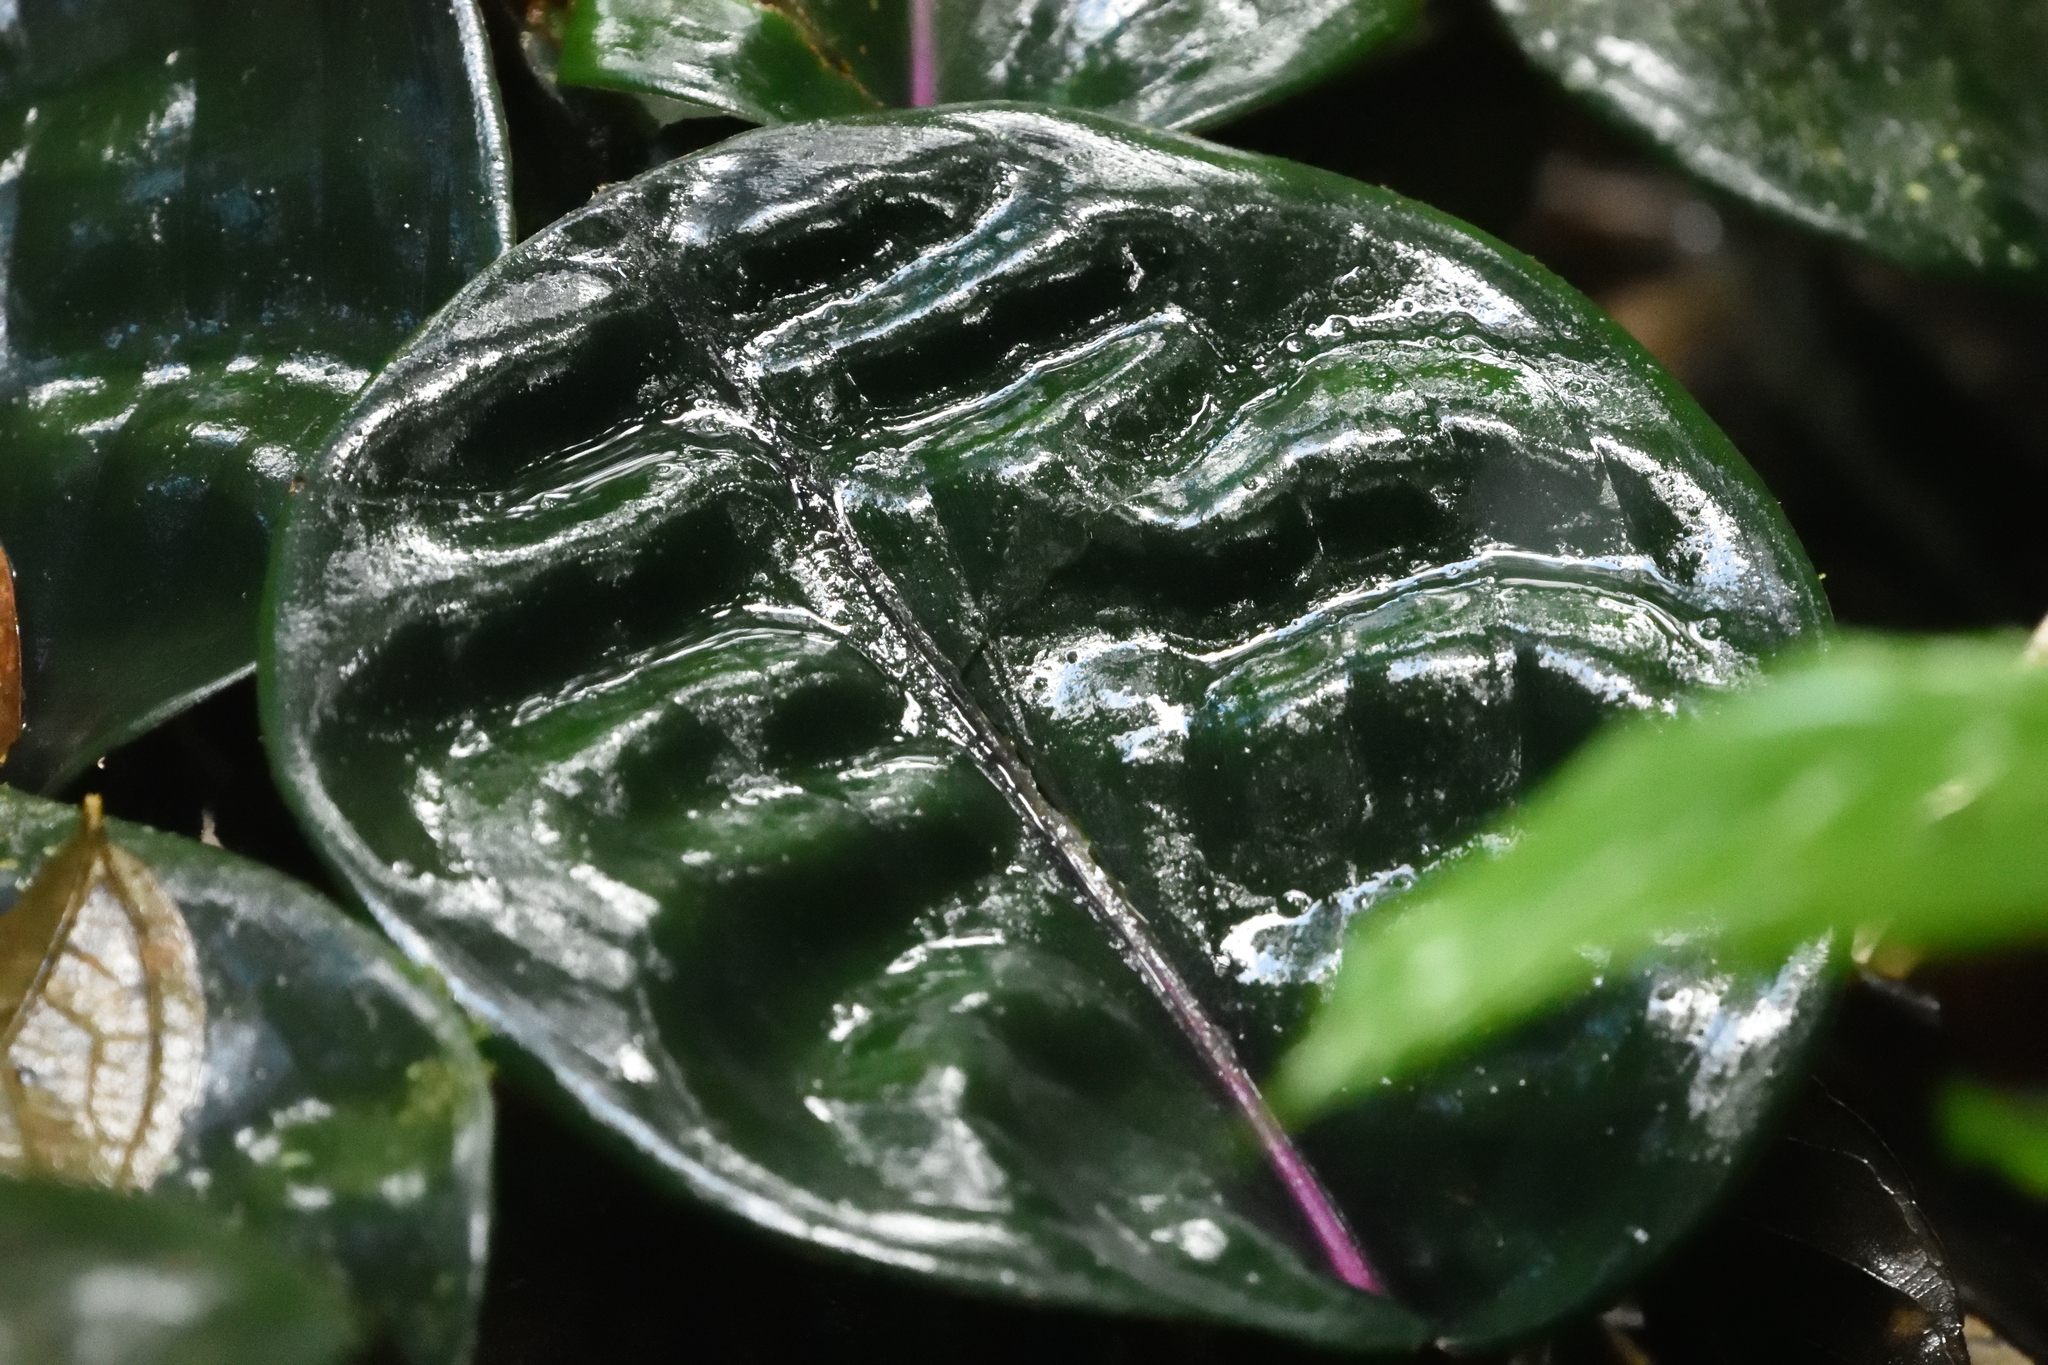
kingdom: Plantae
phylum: Tracheophyta
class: Liliopsida
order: Commelinales
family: Commelinaceae
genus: Geogenanthus
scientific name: Geogenanthus ciliatus
